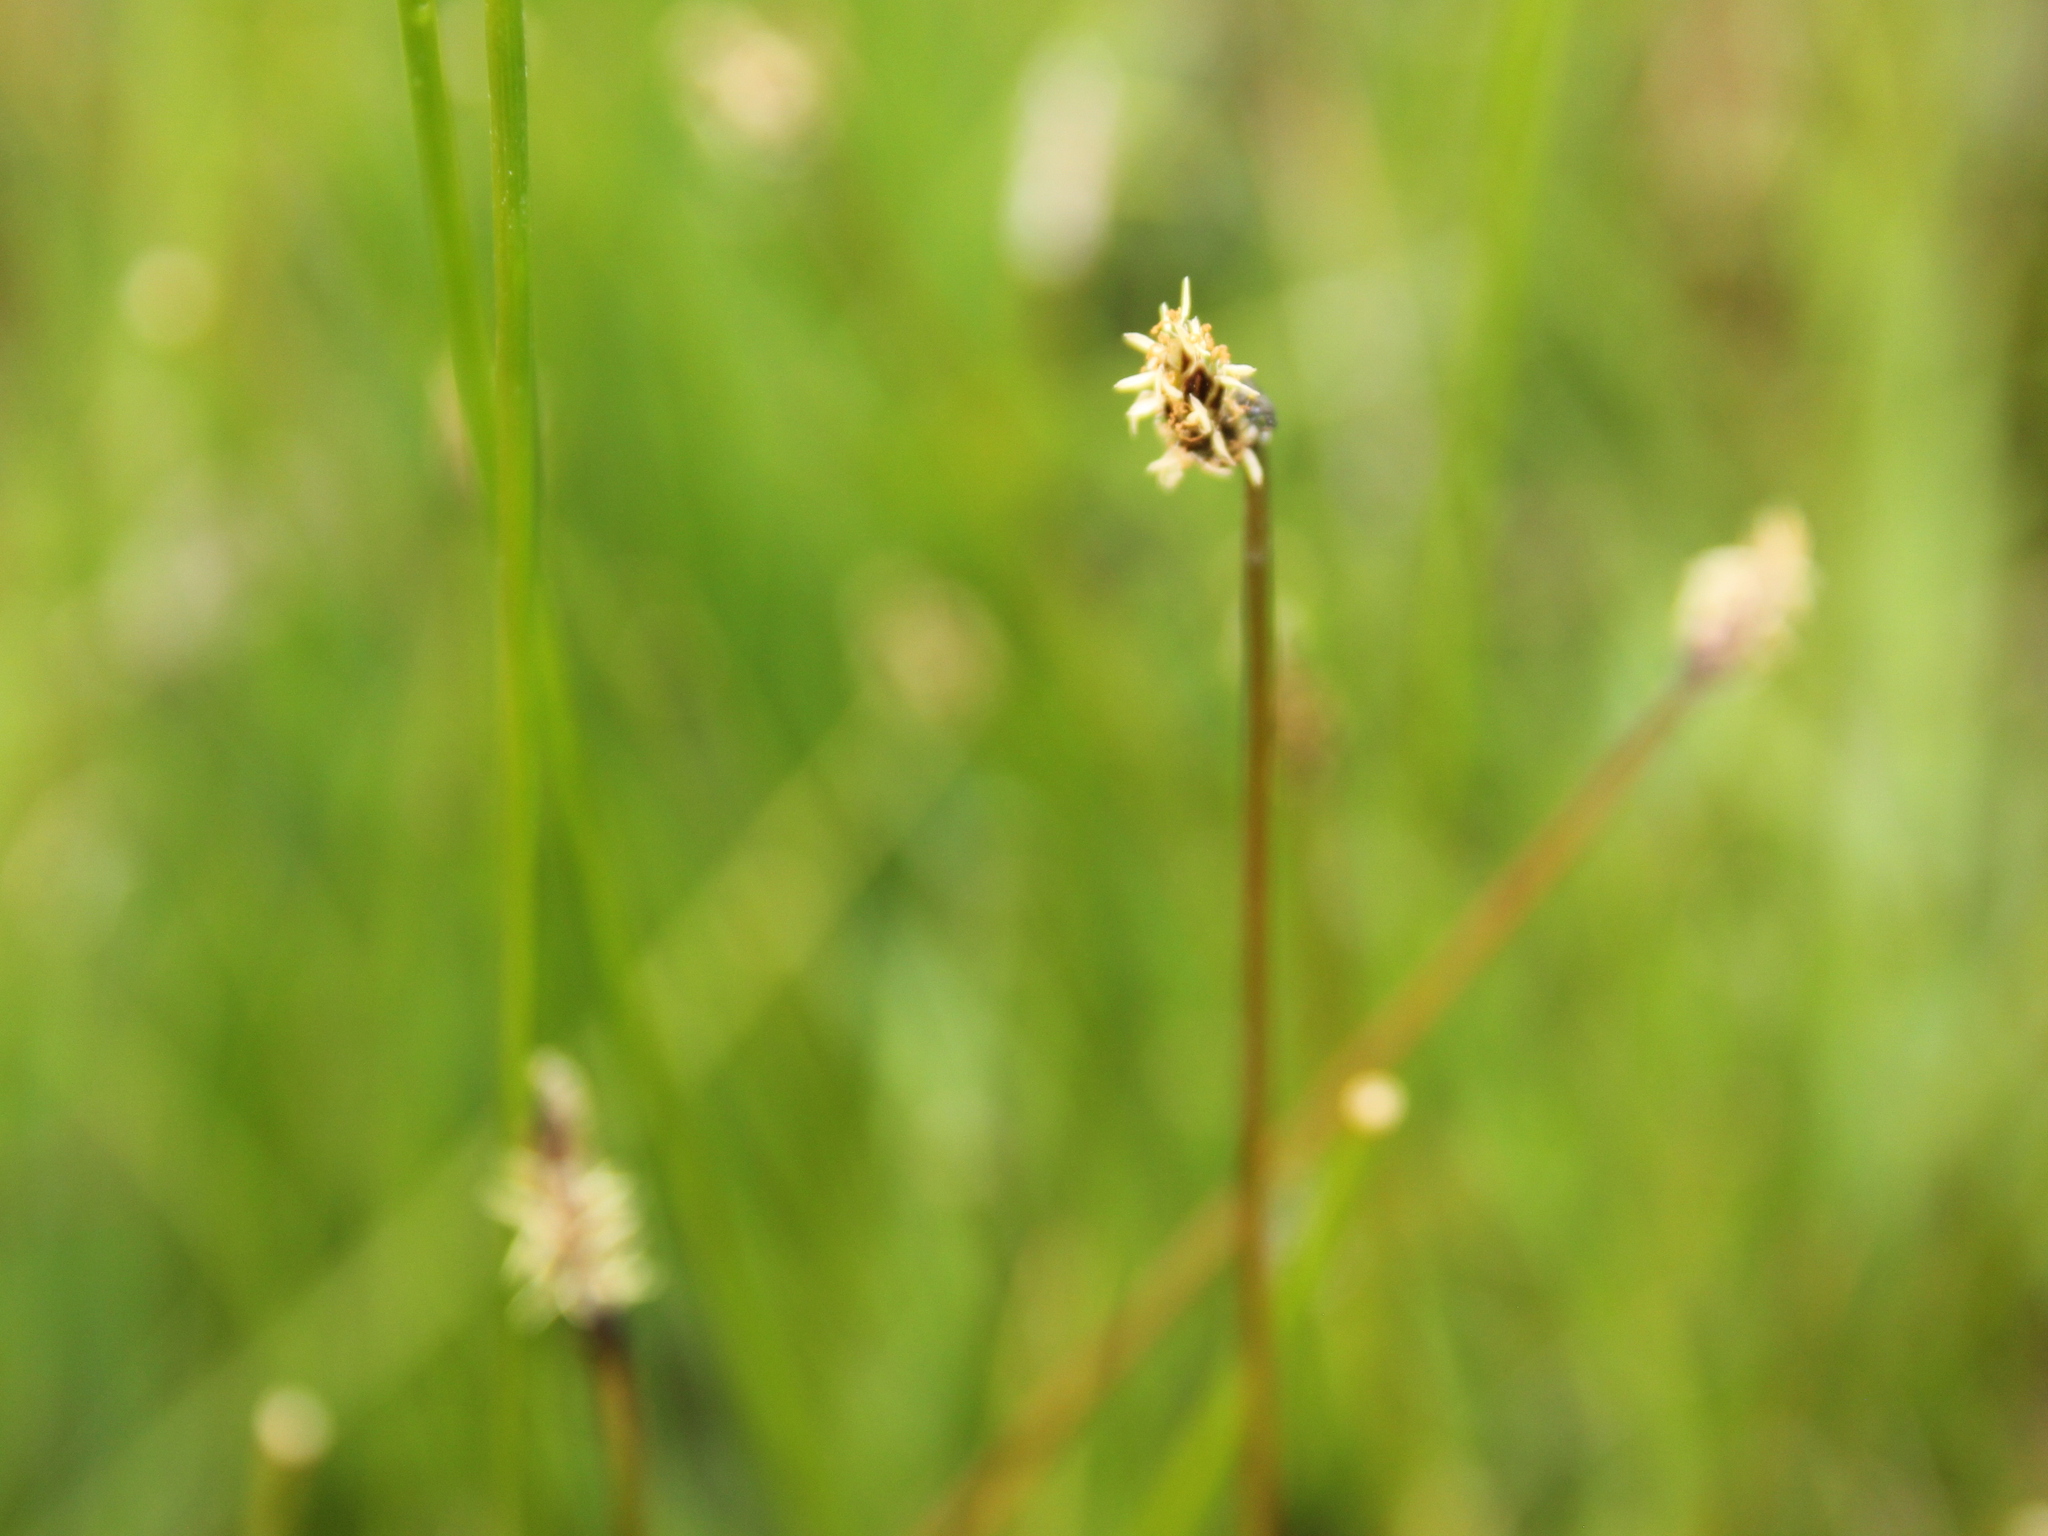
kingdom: Plantae
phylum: Tracheophyta
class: Liliopsida
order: Poales
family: Cyperaceae
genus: Eleocharis
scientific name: Eleocharis acuta
